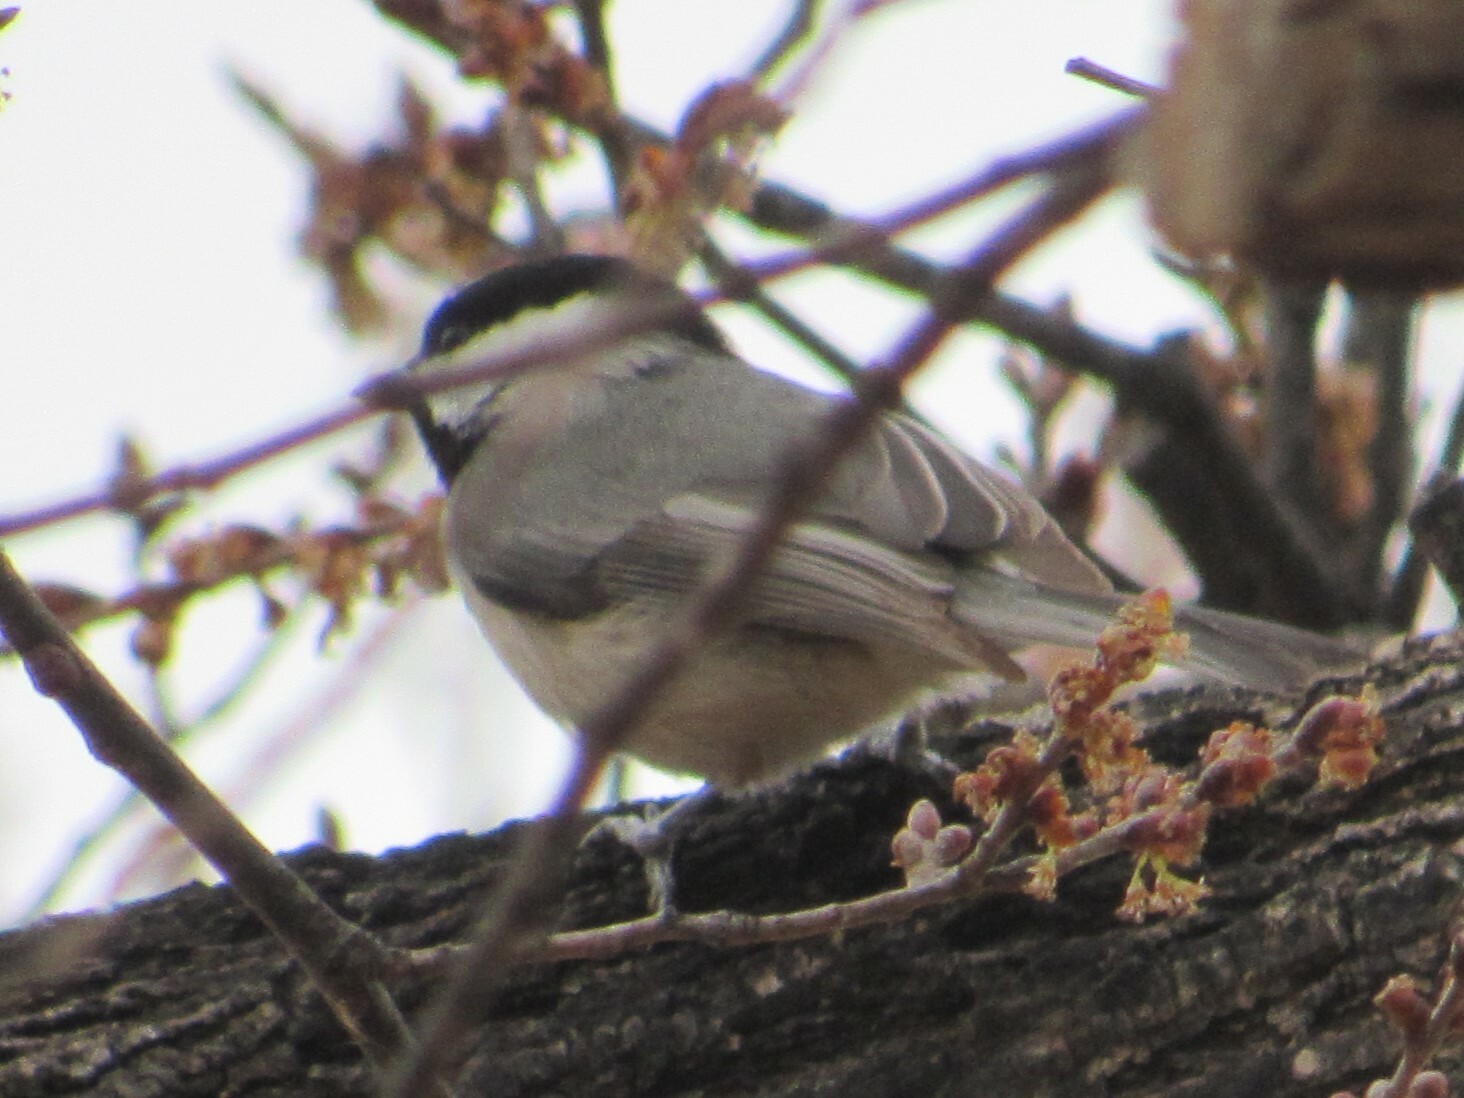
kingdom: Animalia
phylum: Chordata
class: Aves
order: Passeriformes
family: Paridae
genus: Poecile
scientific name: Poecile carolinensis
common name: Carolina chickadee
